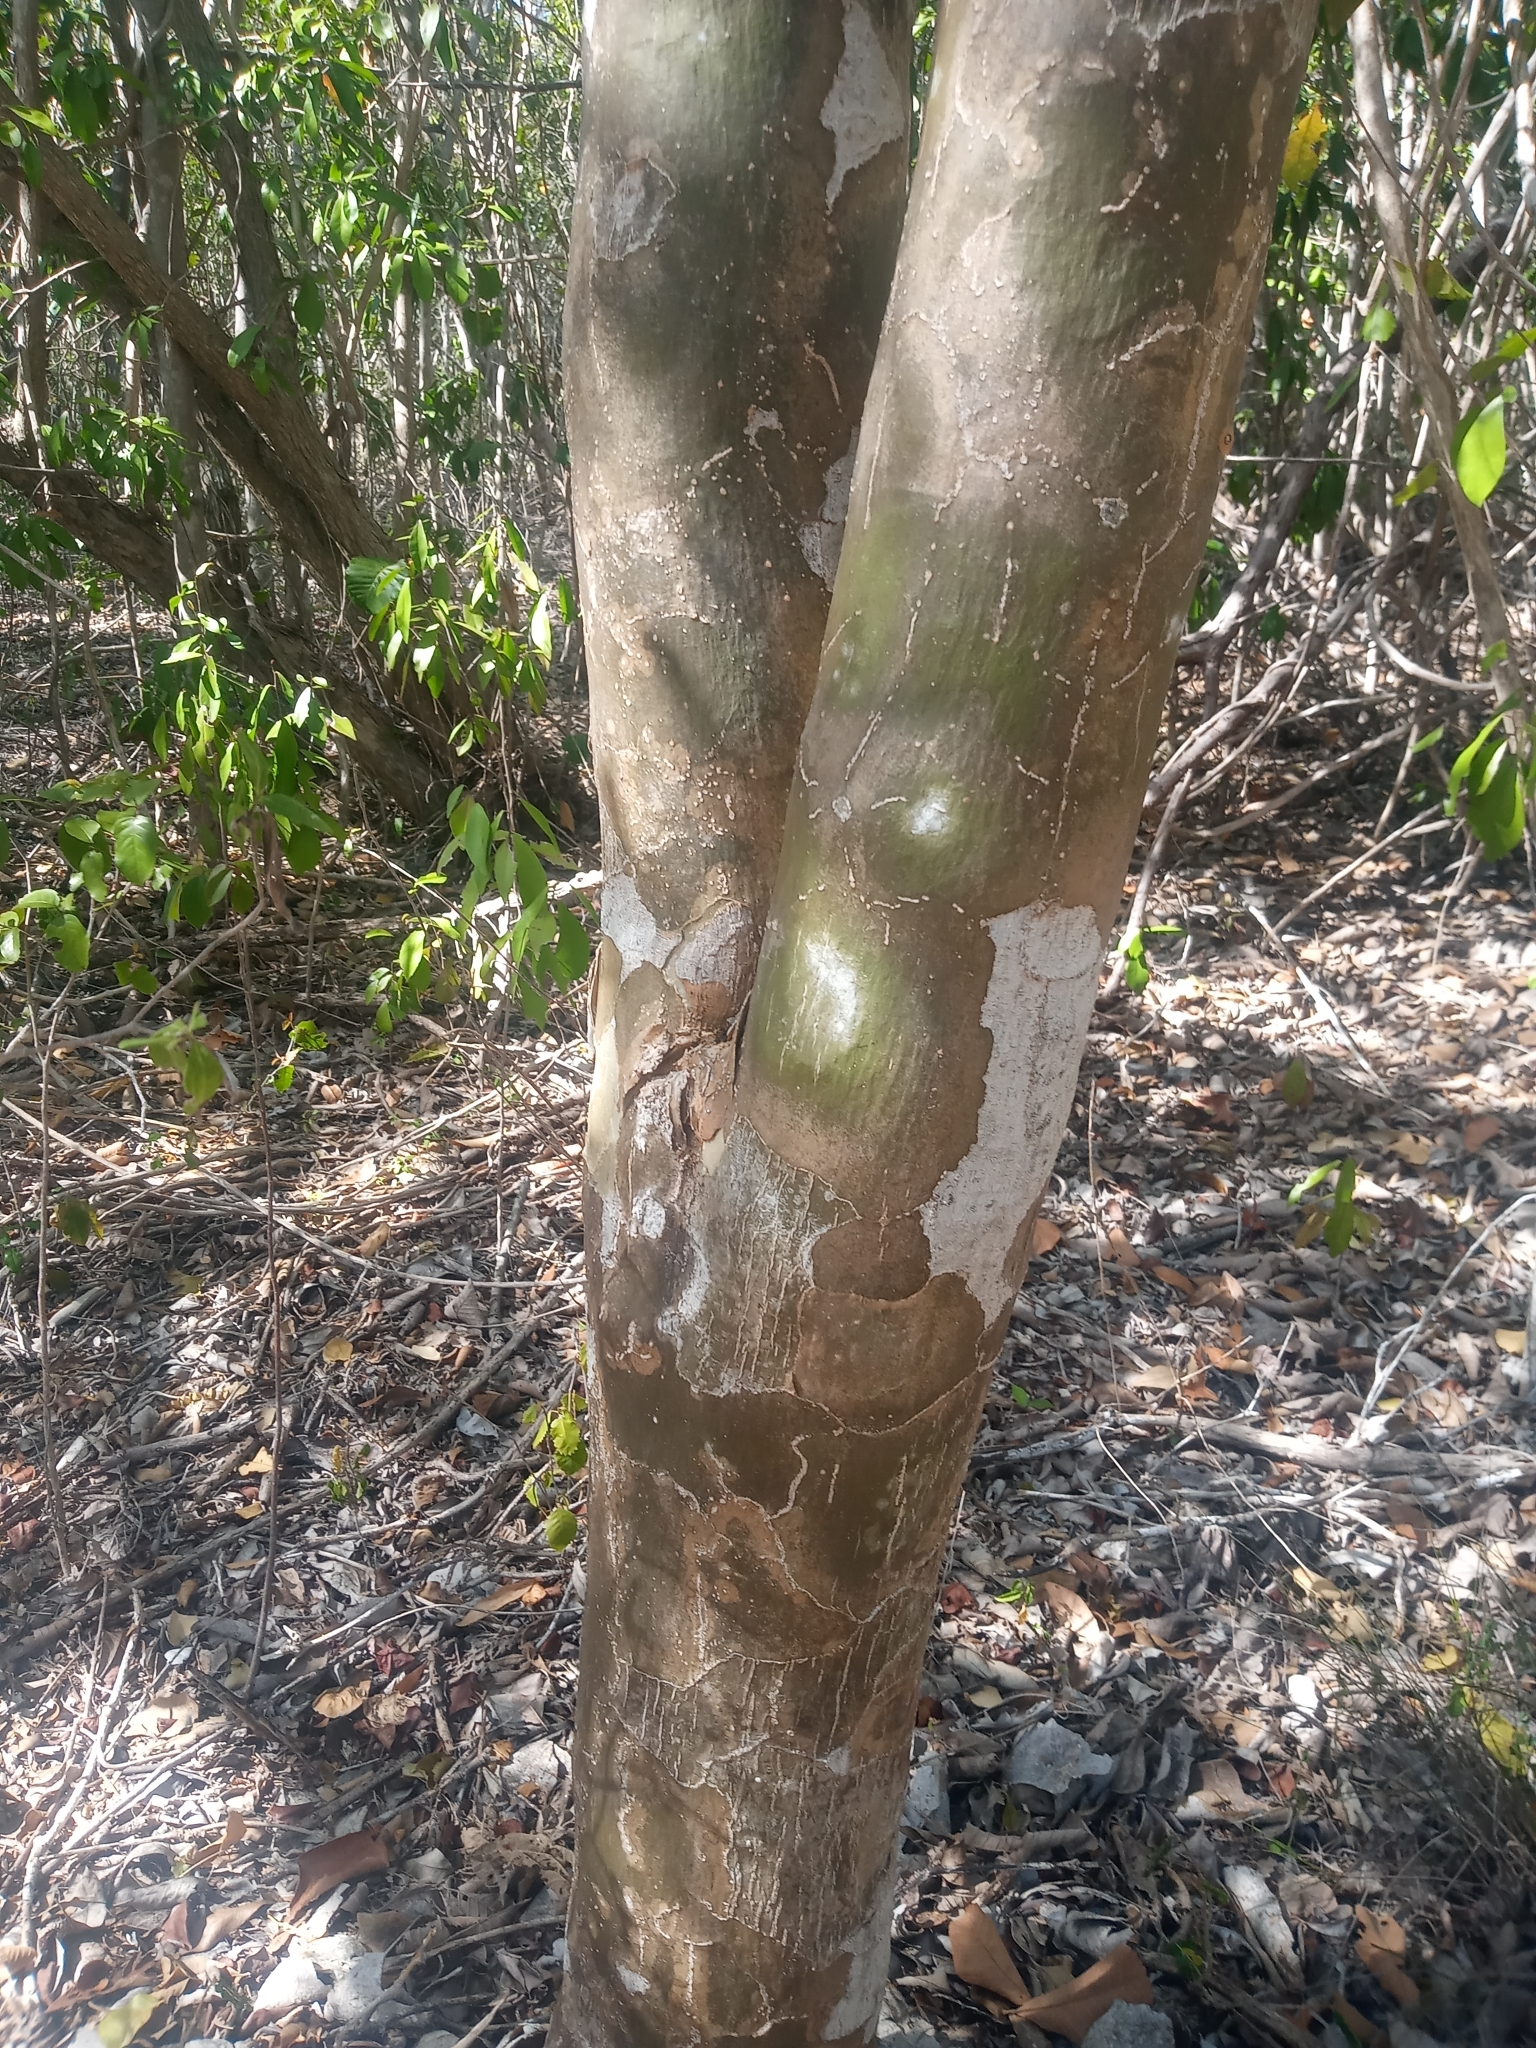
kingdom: Plantae
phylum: Tracheophyta
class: Magnoliopsida
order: Zygophyllales
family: Zygophyllaceae
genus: Guaiacum
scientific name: Guaiacum officinale
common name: Lignum vitae
